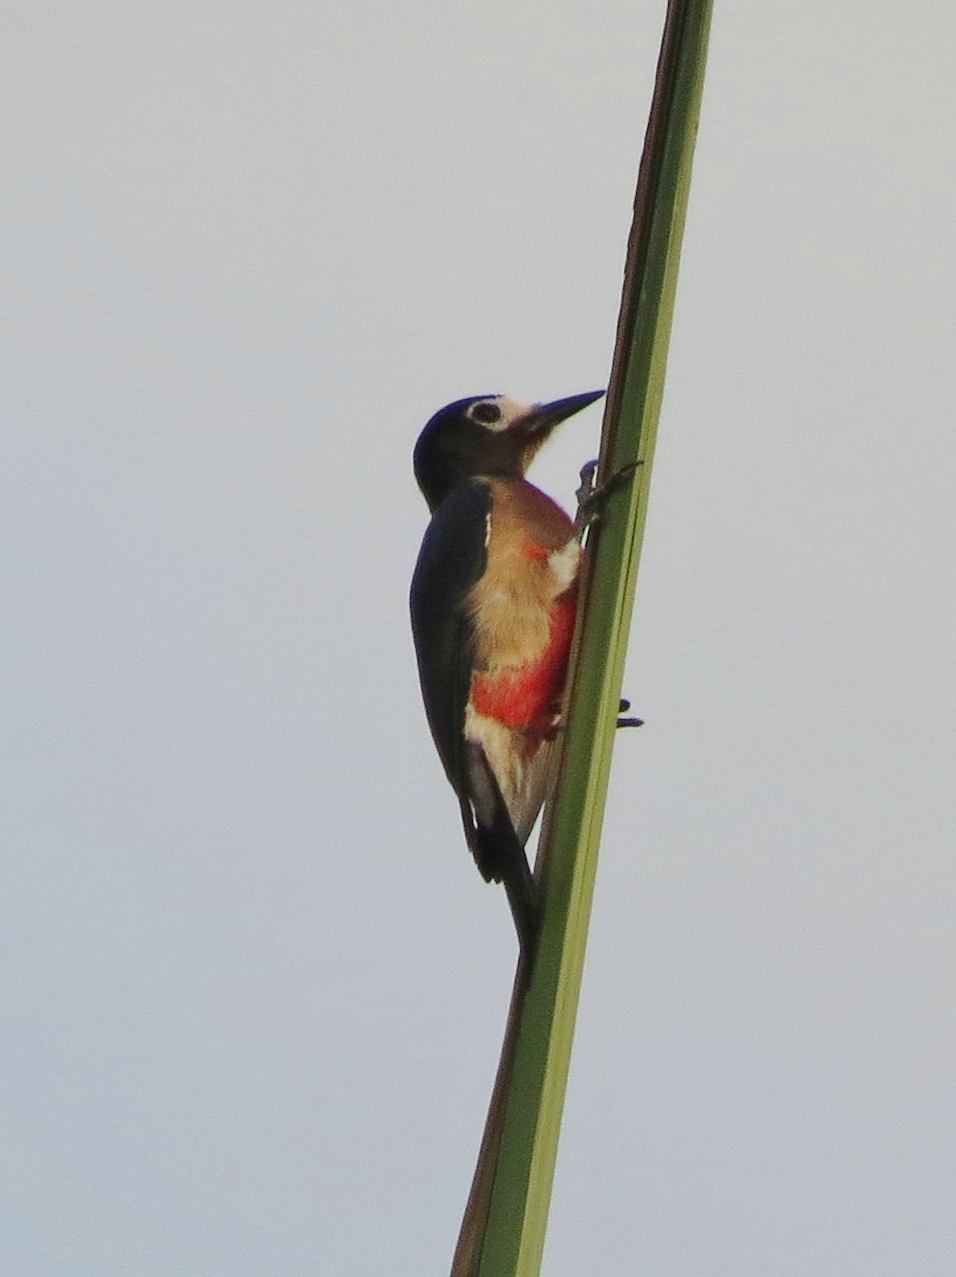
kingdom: Animalia
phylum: Chordata
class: Aves
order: Piciformes
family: Picidae
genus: Melanerpes
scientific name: Melanerpes portoricensis
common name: Puerto rican woodpecker
